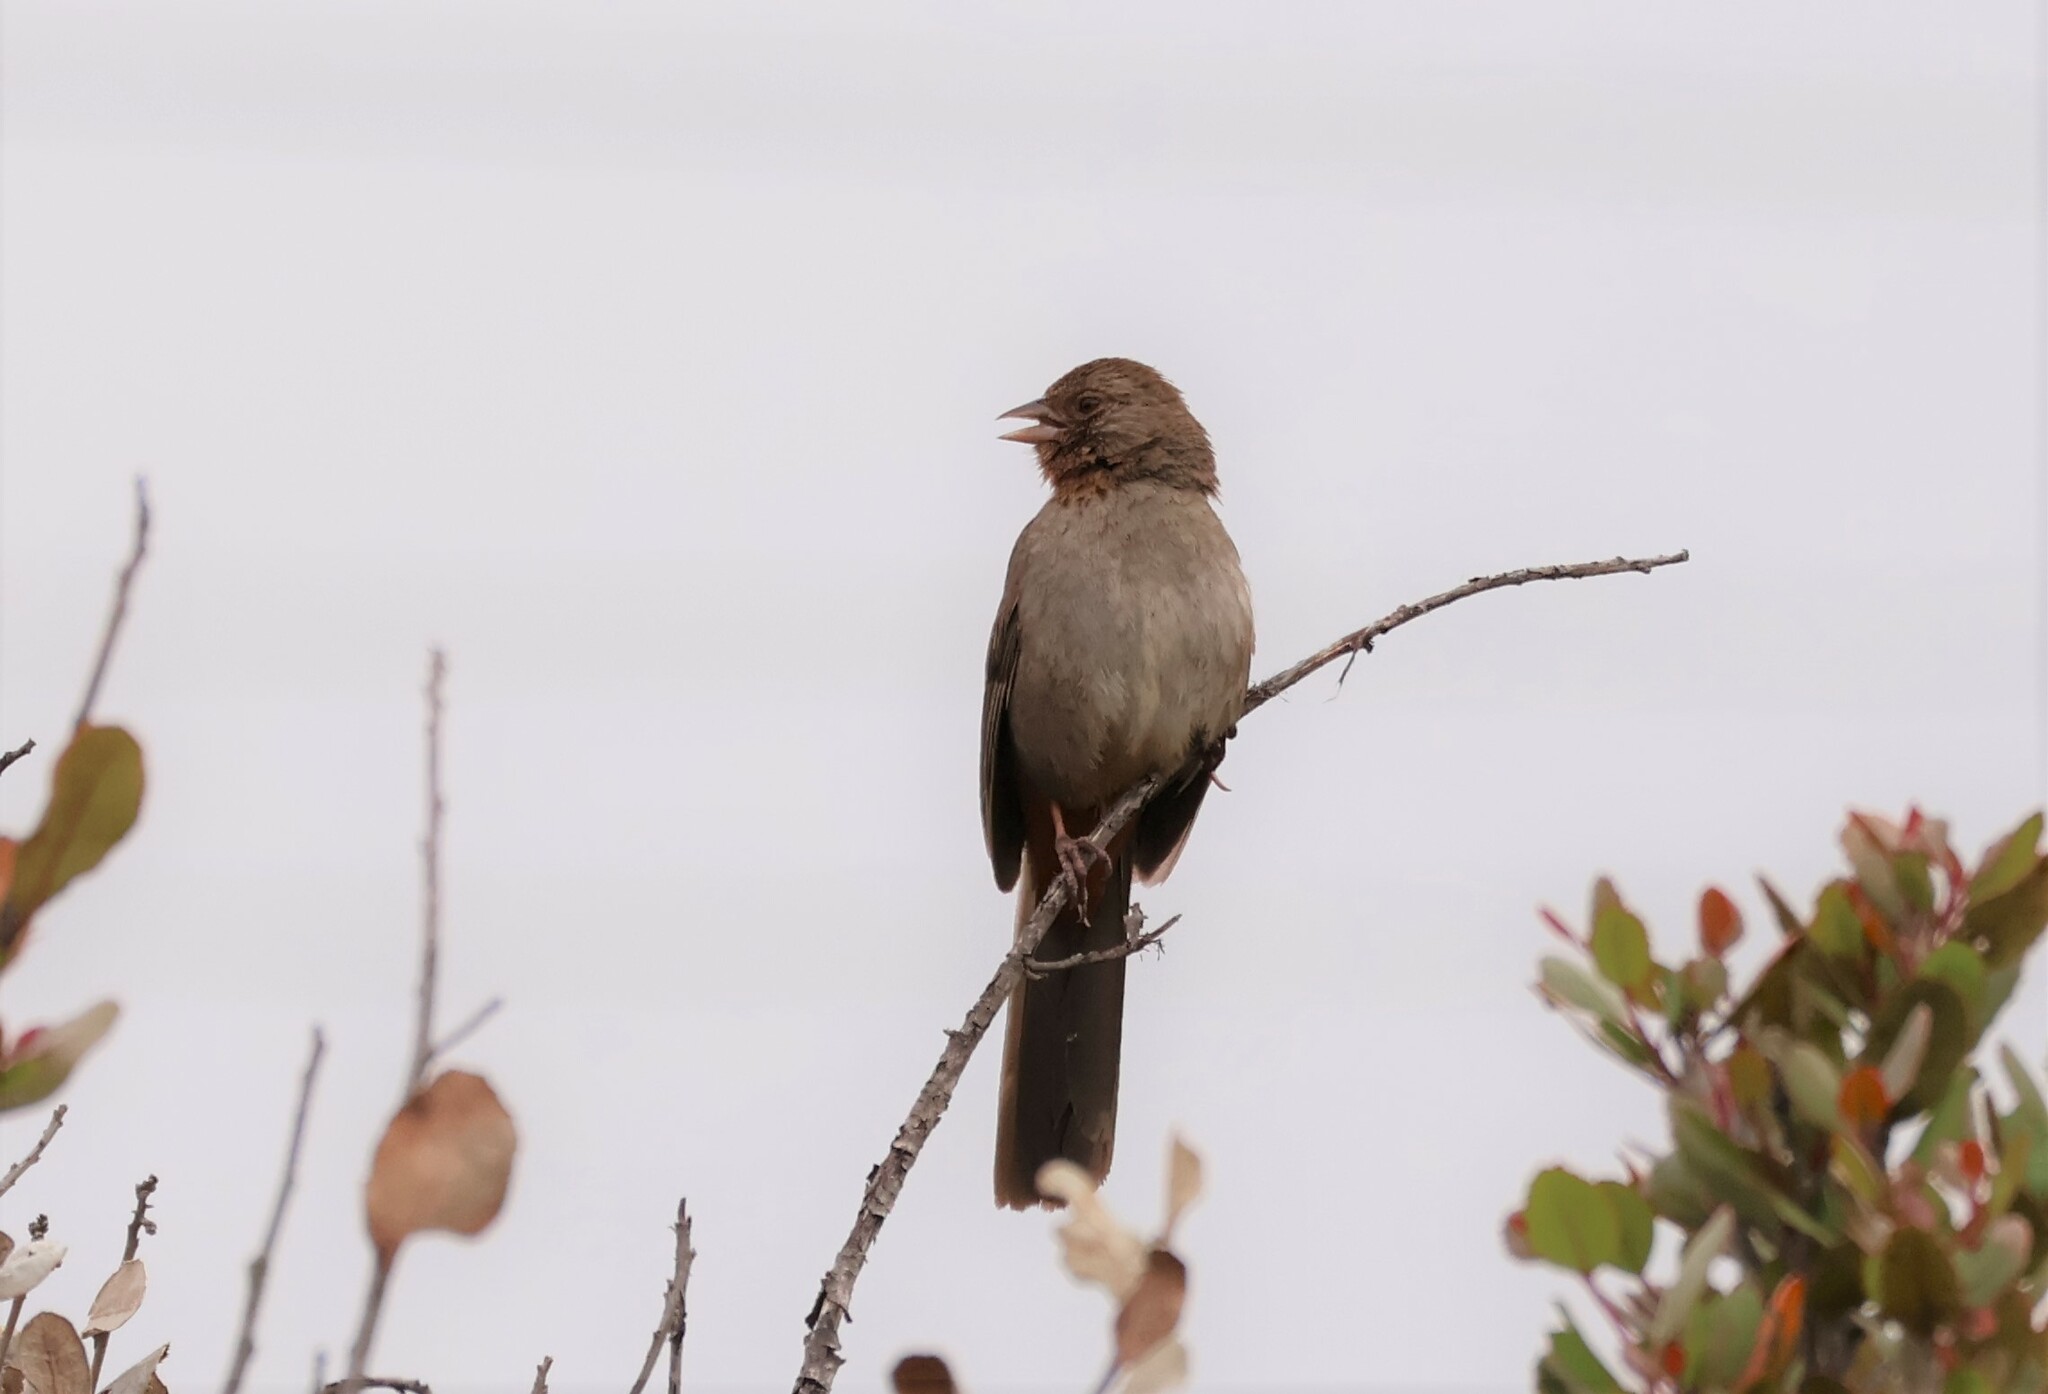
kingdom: Animalia
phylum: Chordata
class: Aves
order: Passeriformes
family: Passerellidae
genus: Melozone
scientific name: Melozone crissalis
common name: California towhee
